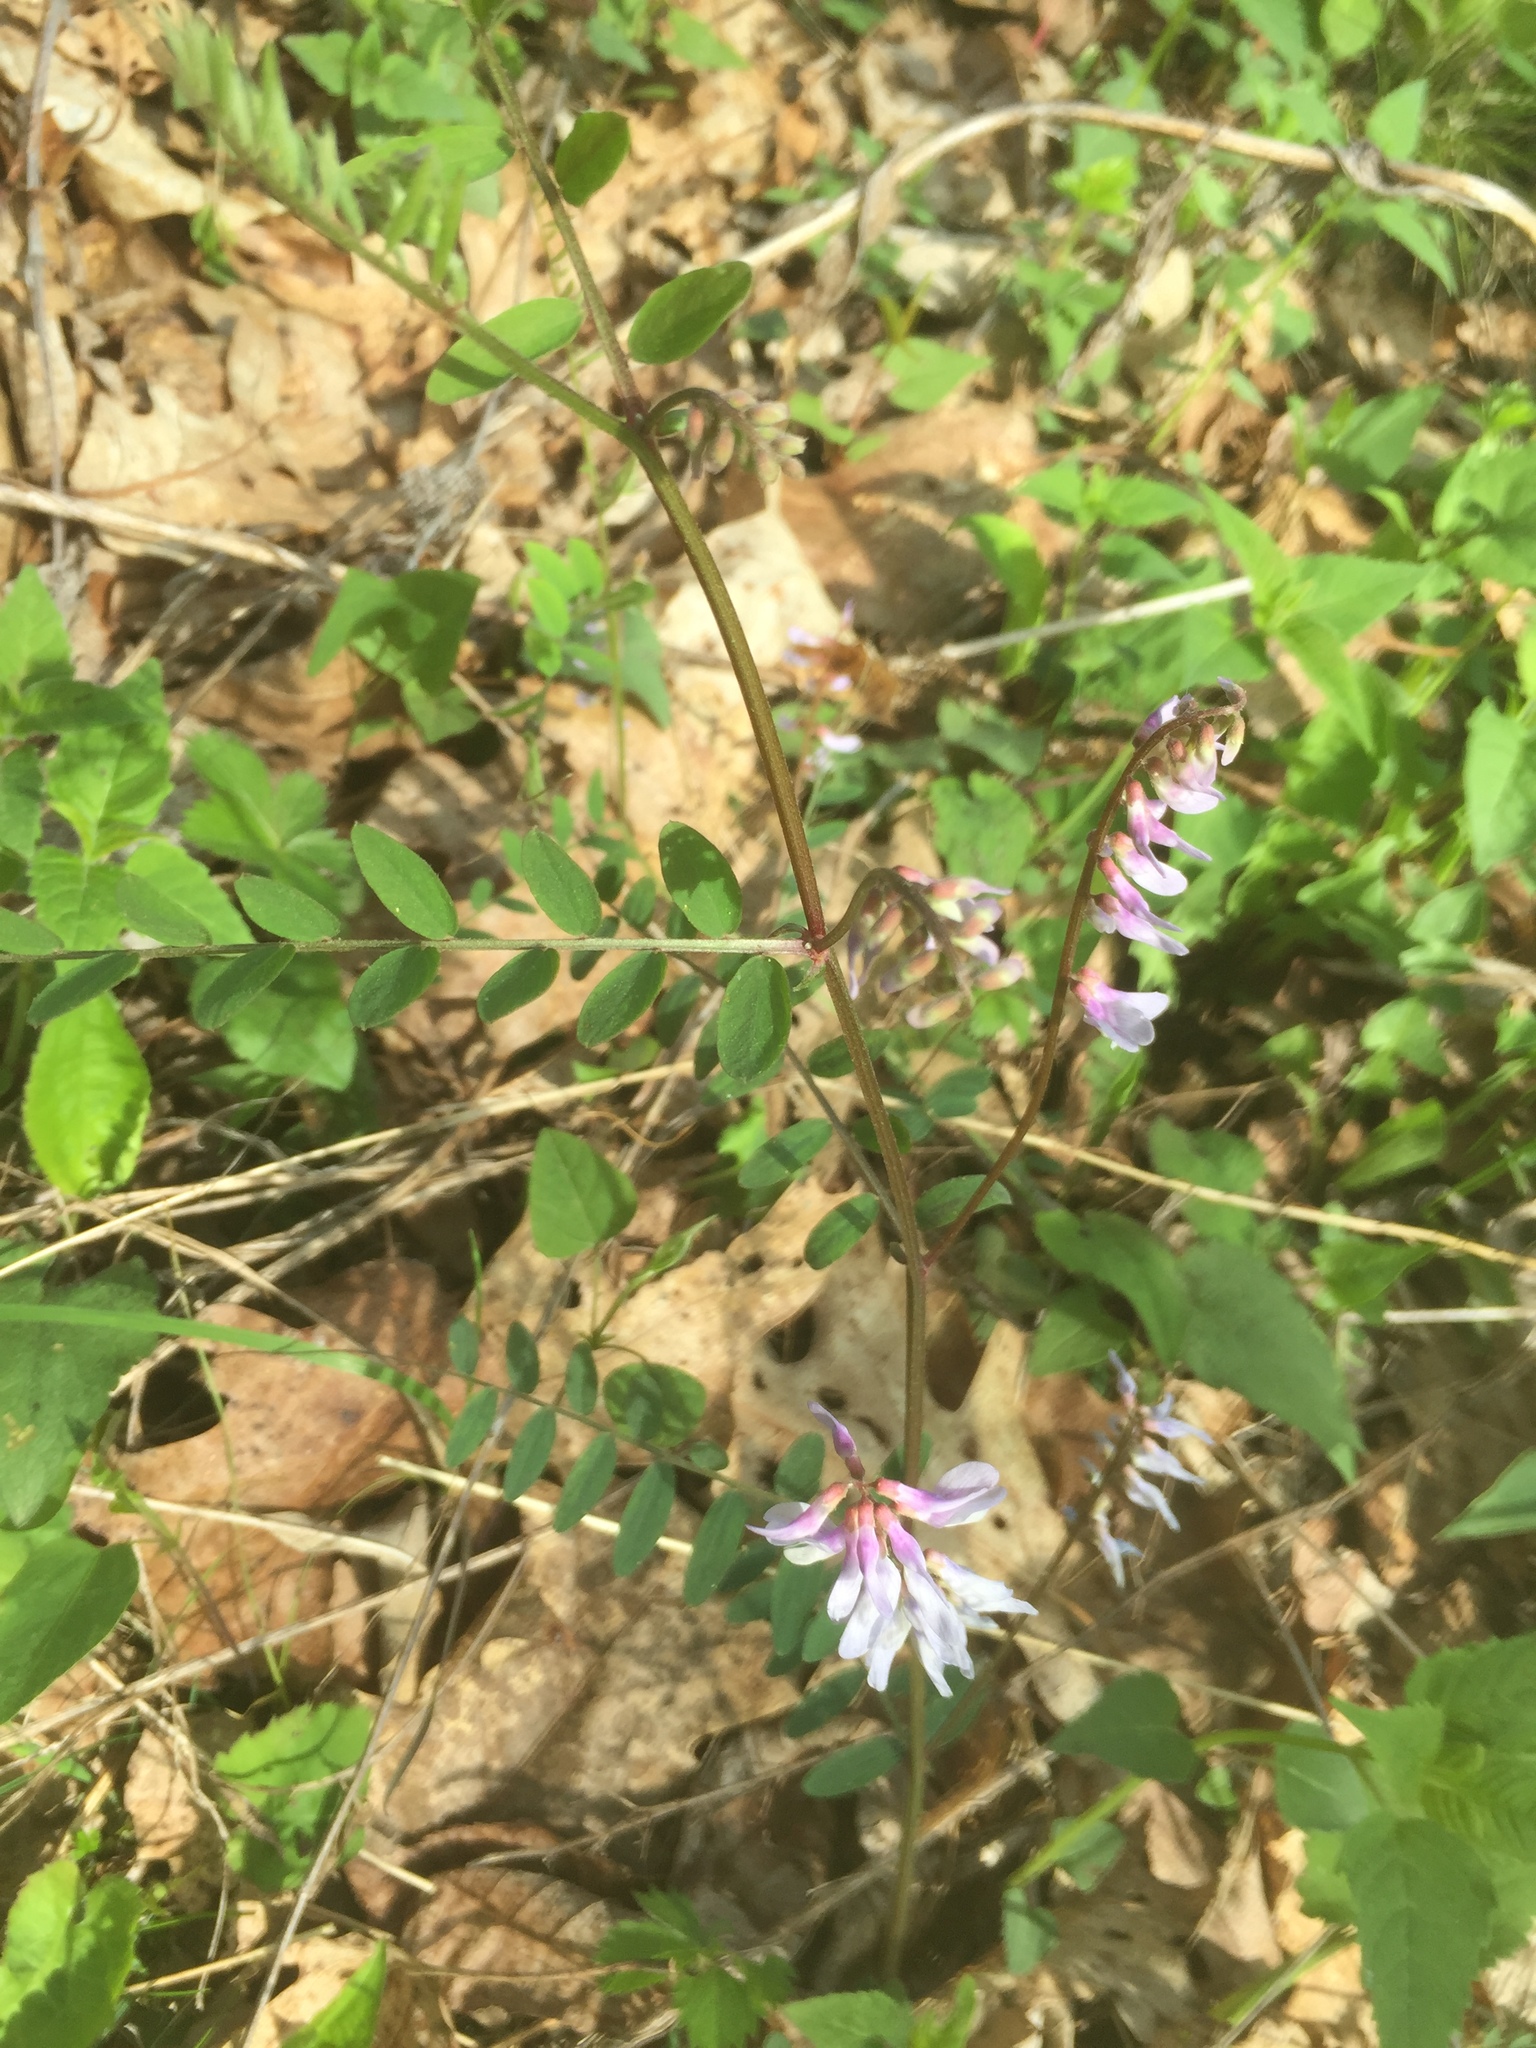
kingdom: Plantae
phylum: Tracheophyta
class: Magnoliopsida
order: Fabales
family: Fabaceae
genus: Vicia
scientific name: Vicia caroliniana
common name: Carolina vetch
